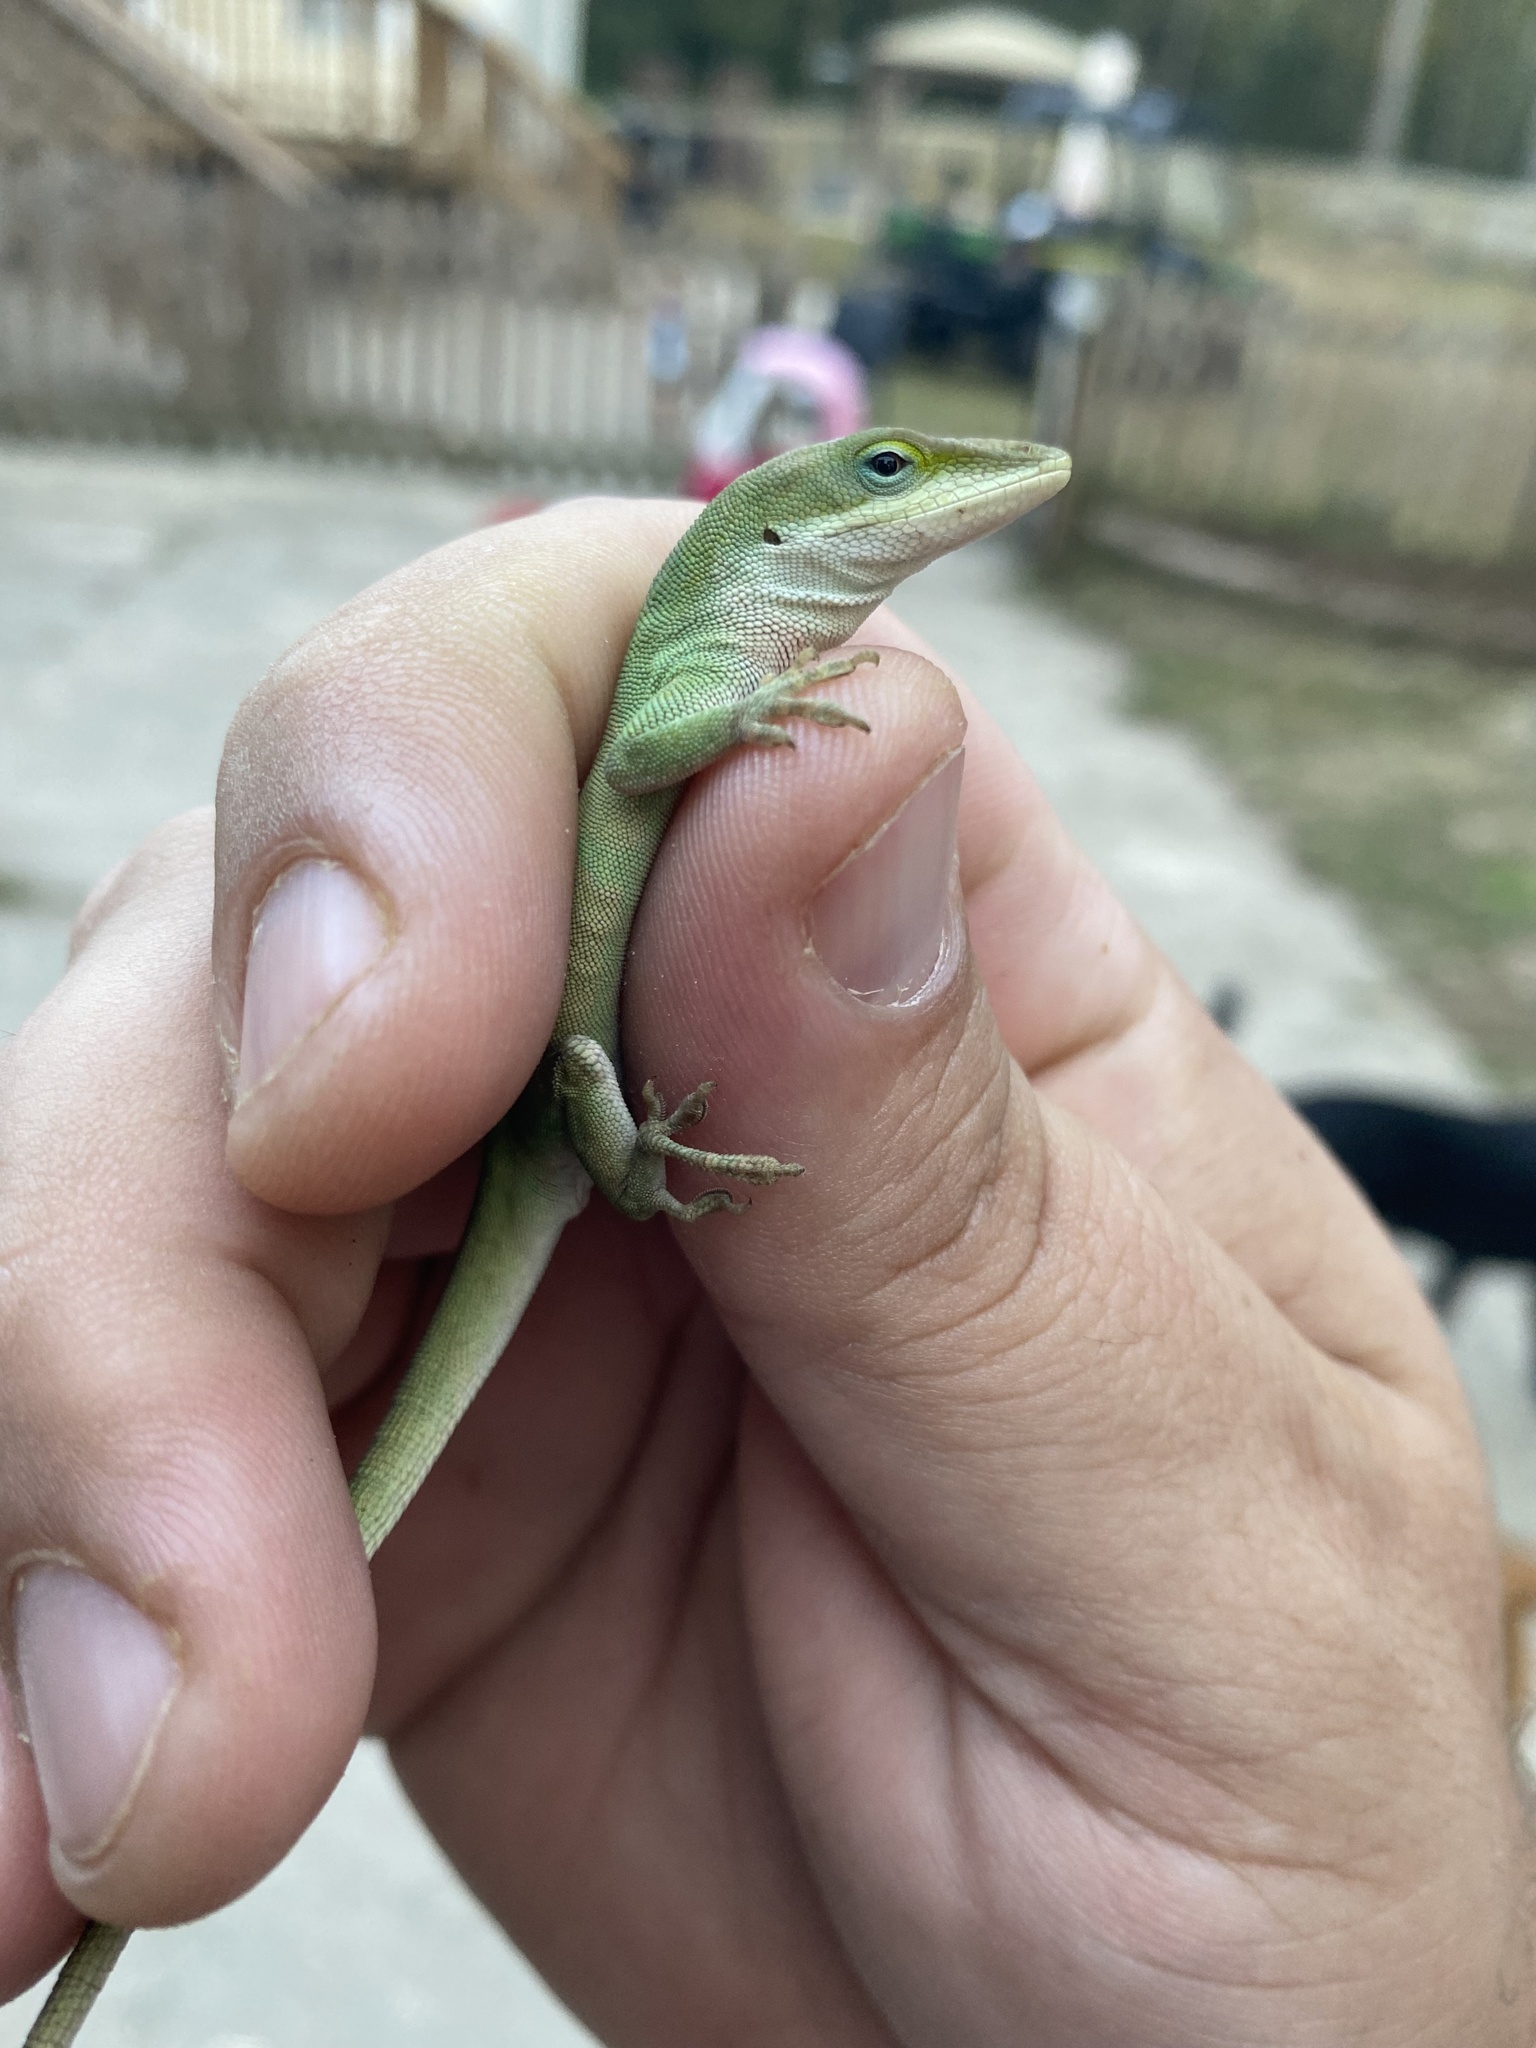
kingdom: Animalia
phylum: Chordata
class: Squamata
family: Dactyloidae
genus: Anolis
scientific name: Anolis carolinensis
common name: Green anole
